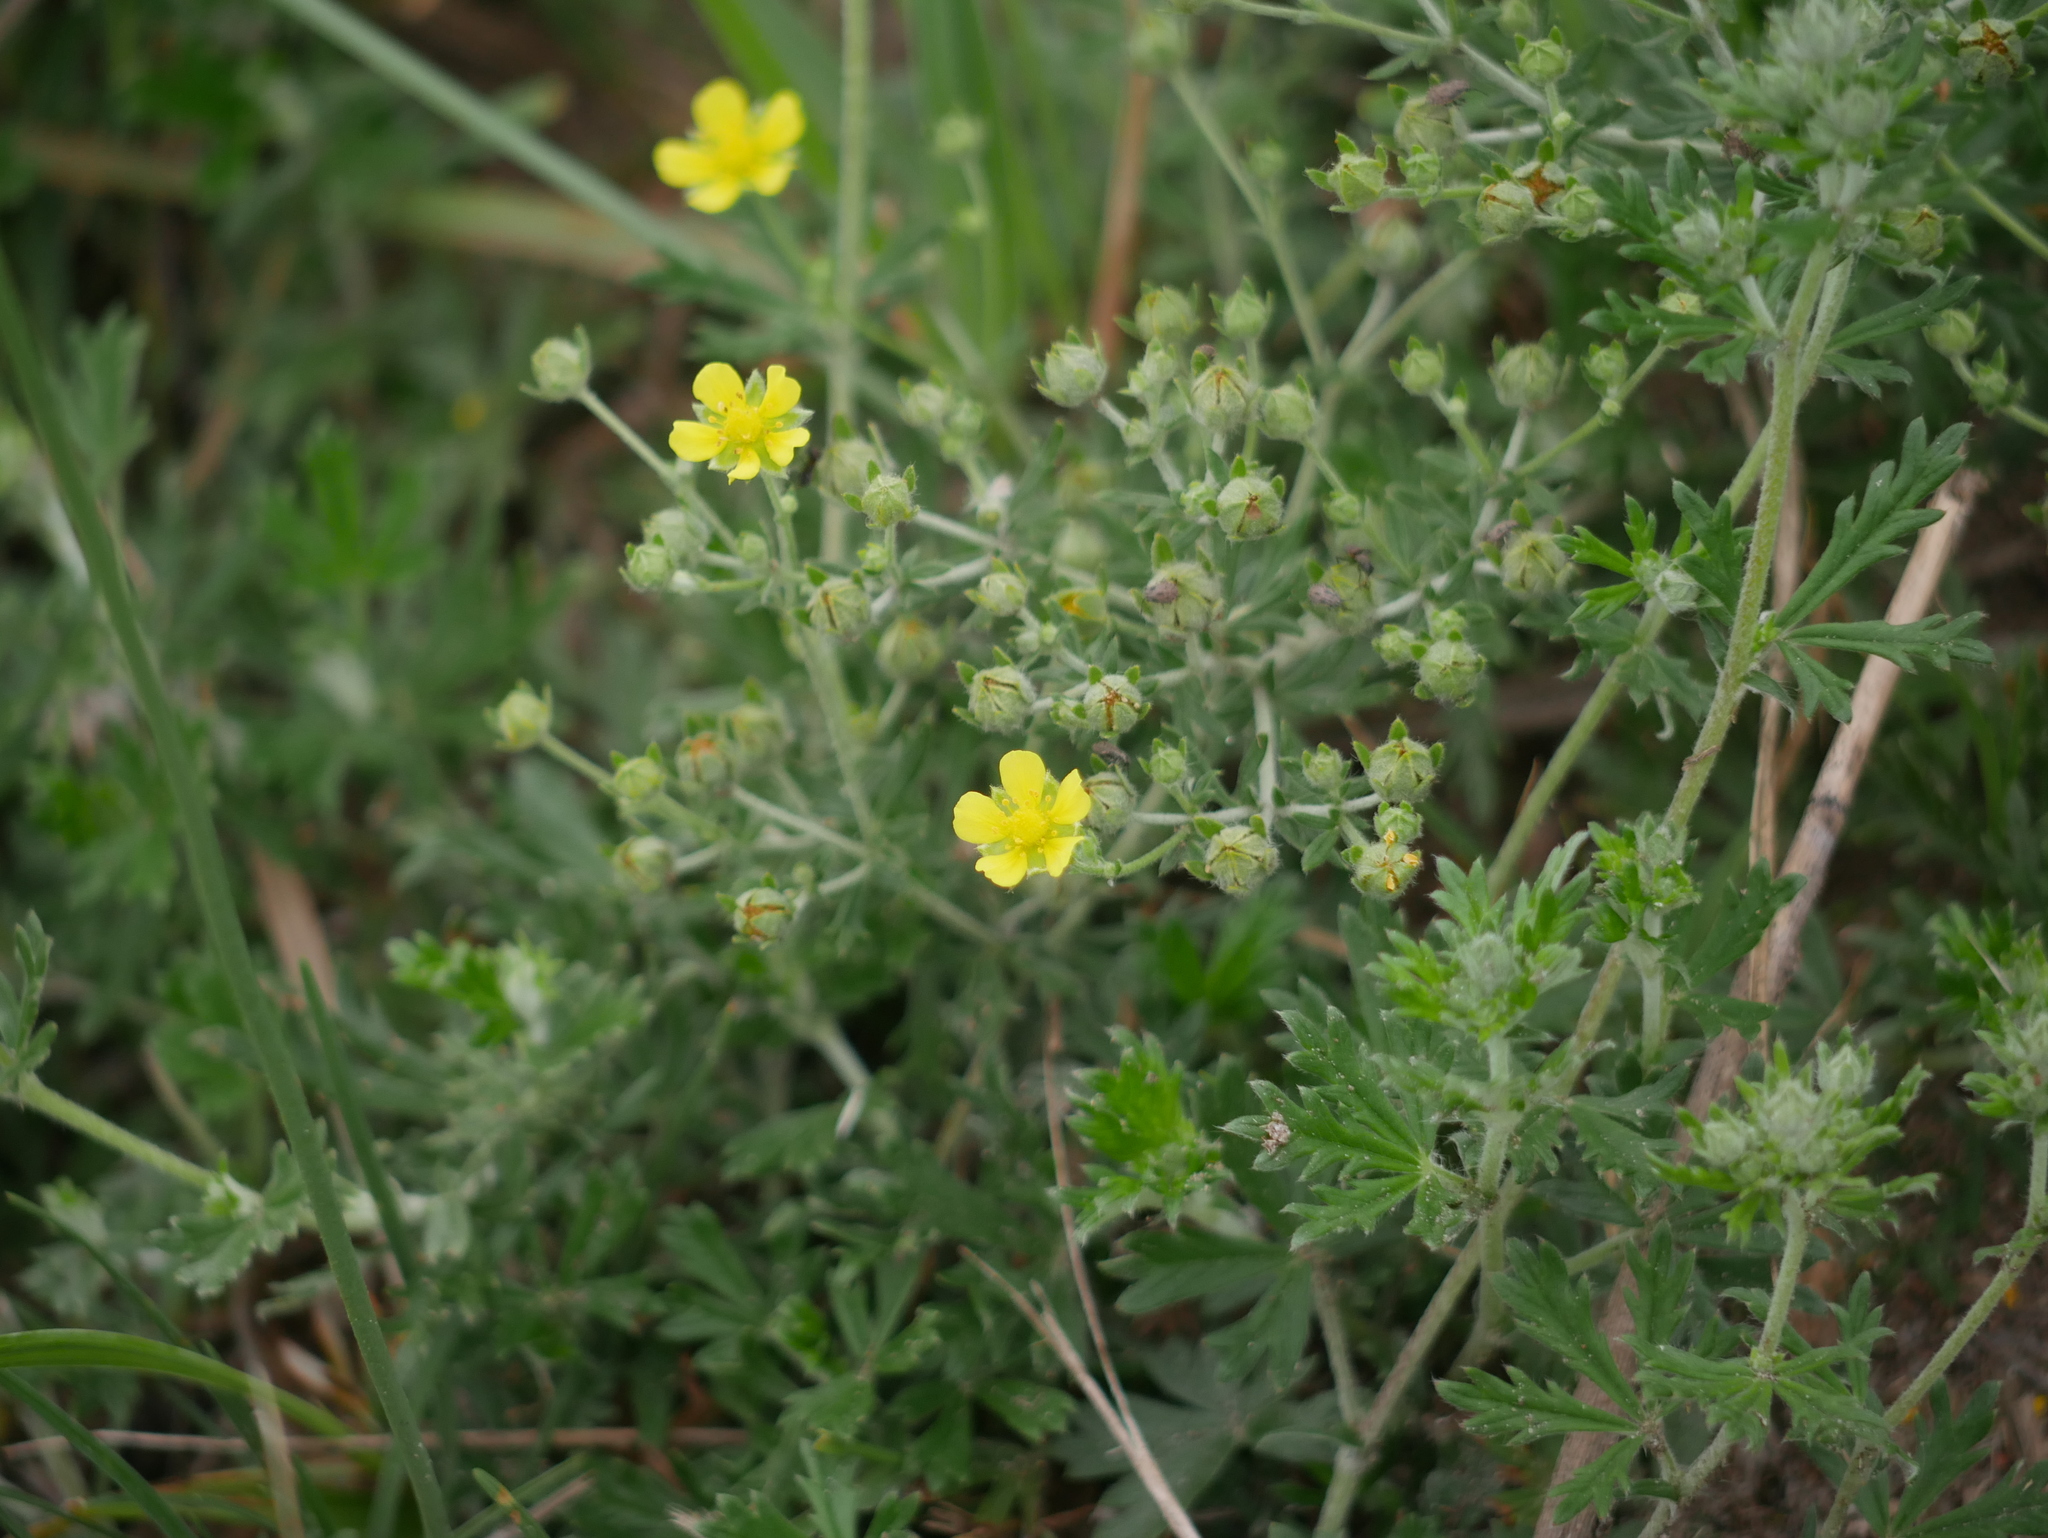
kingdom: Plantae
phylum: Tracheophyta
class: Magnoliopsida
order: Rosales
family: Rosaceae
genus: Potentilla
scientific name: Potentilla argentea
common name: Hoary cinquefoil
